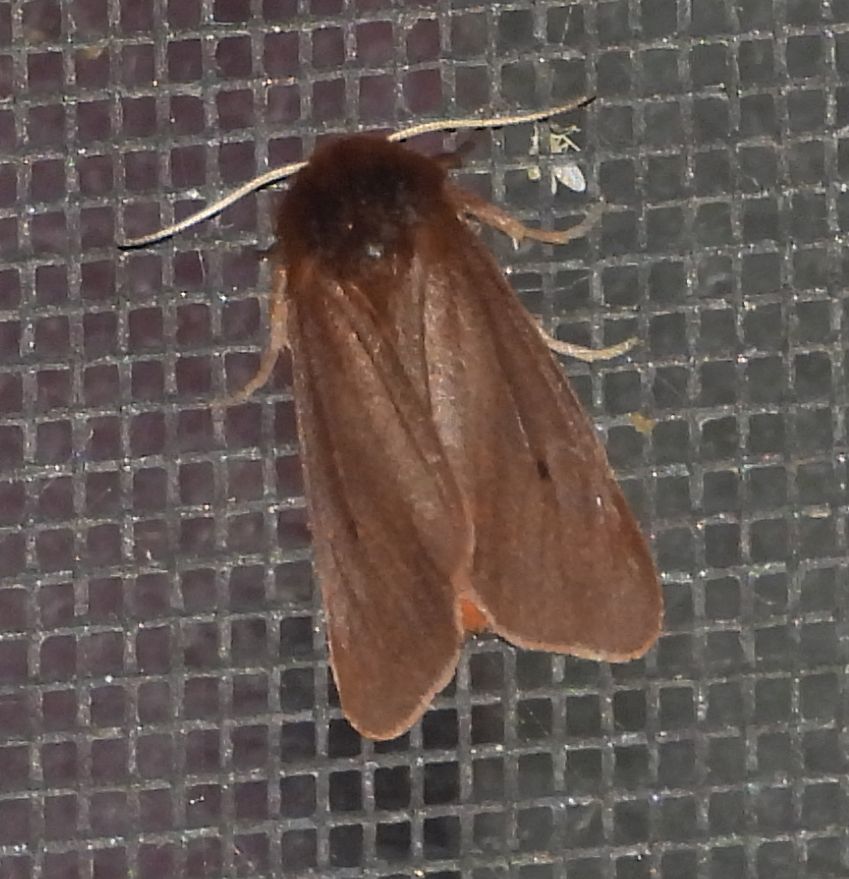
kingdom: Animalia
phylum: Arthropoda
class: Insecta
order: Lepidoptera
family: Erebidae
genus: Phragmatobia
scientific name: Phragmatobia fuliginosa
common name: Ruby tiger
